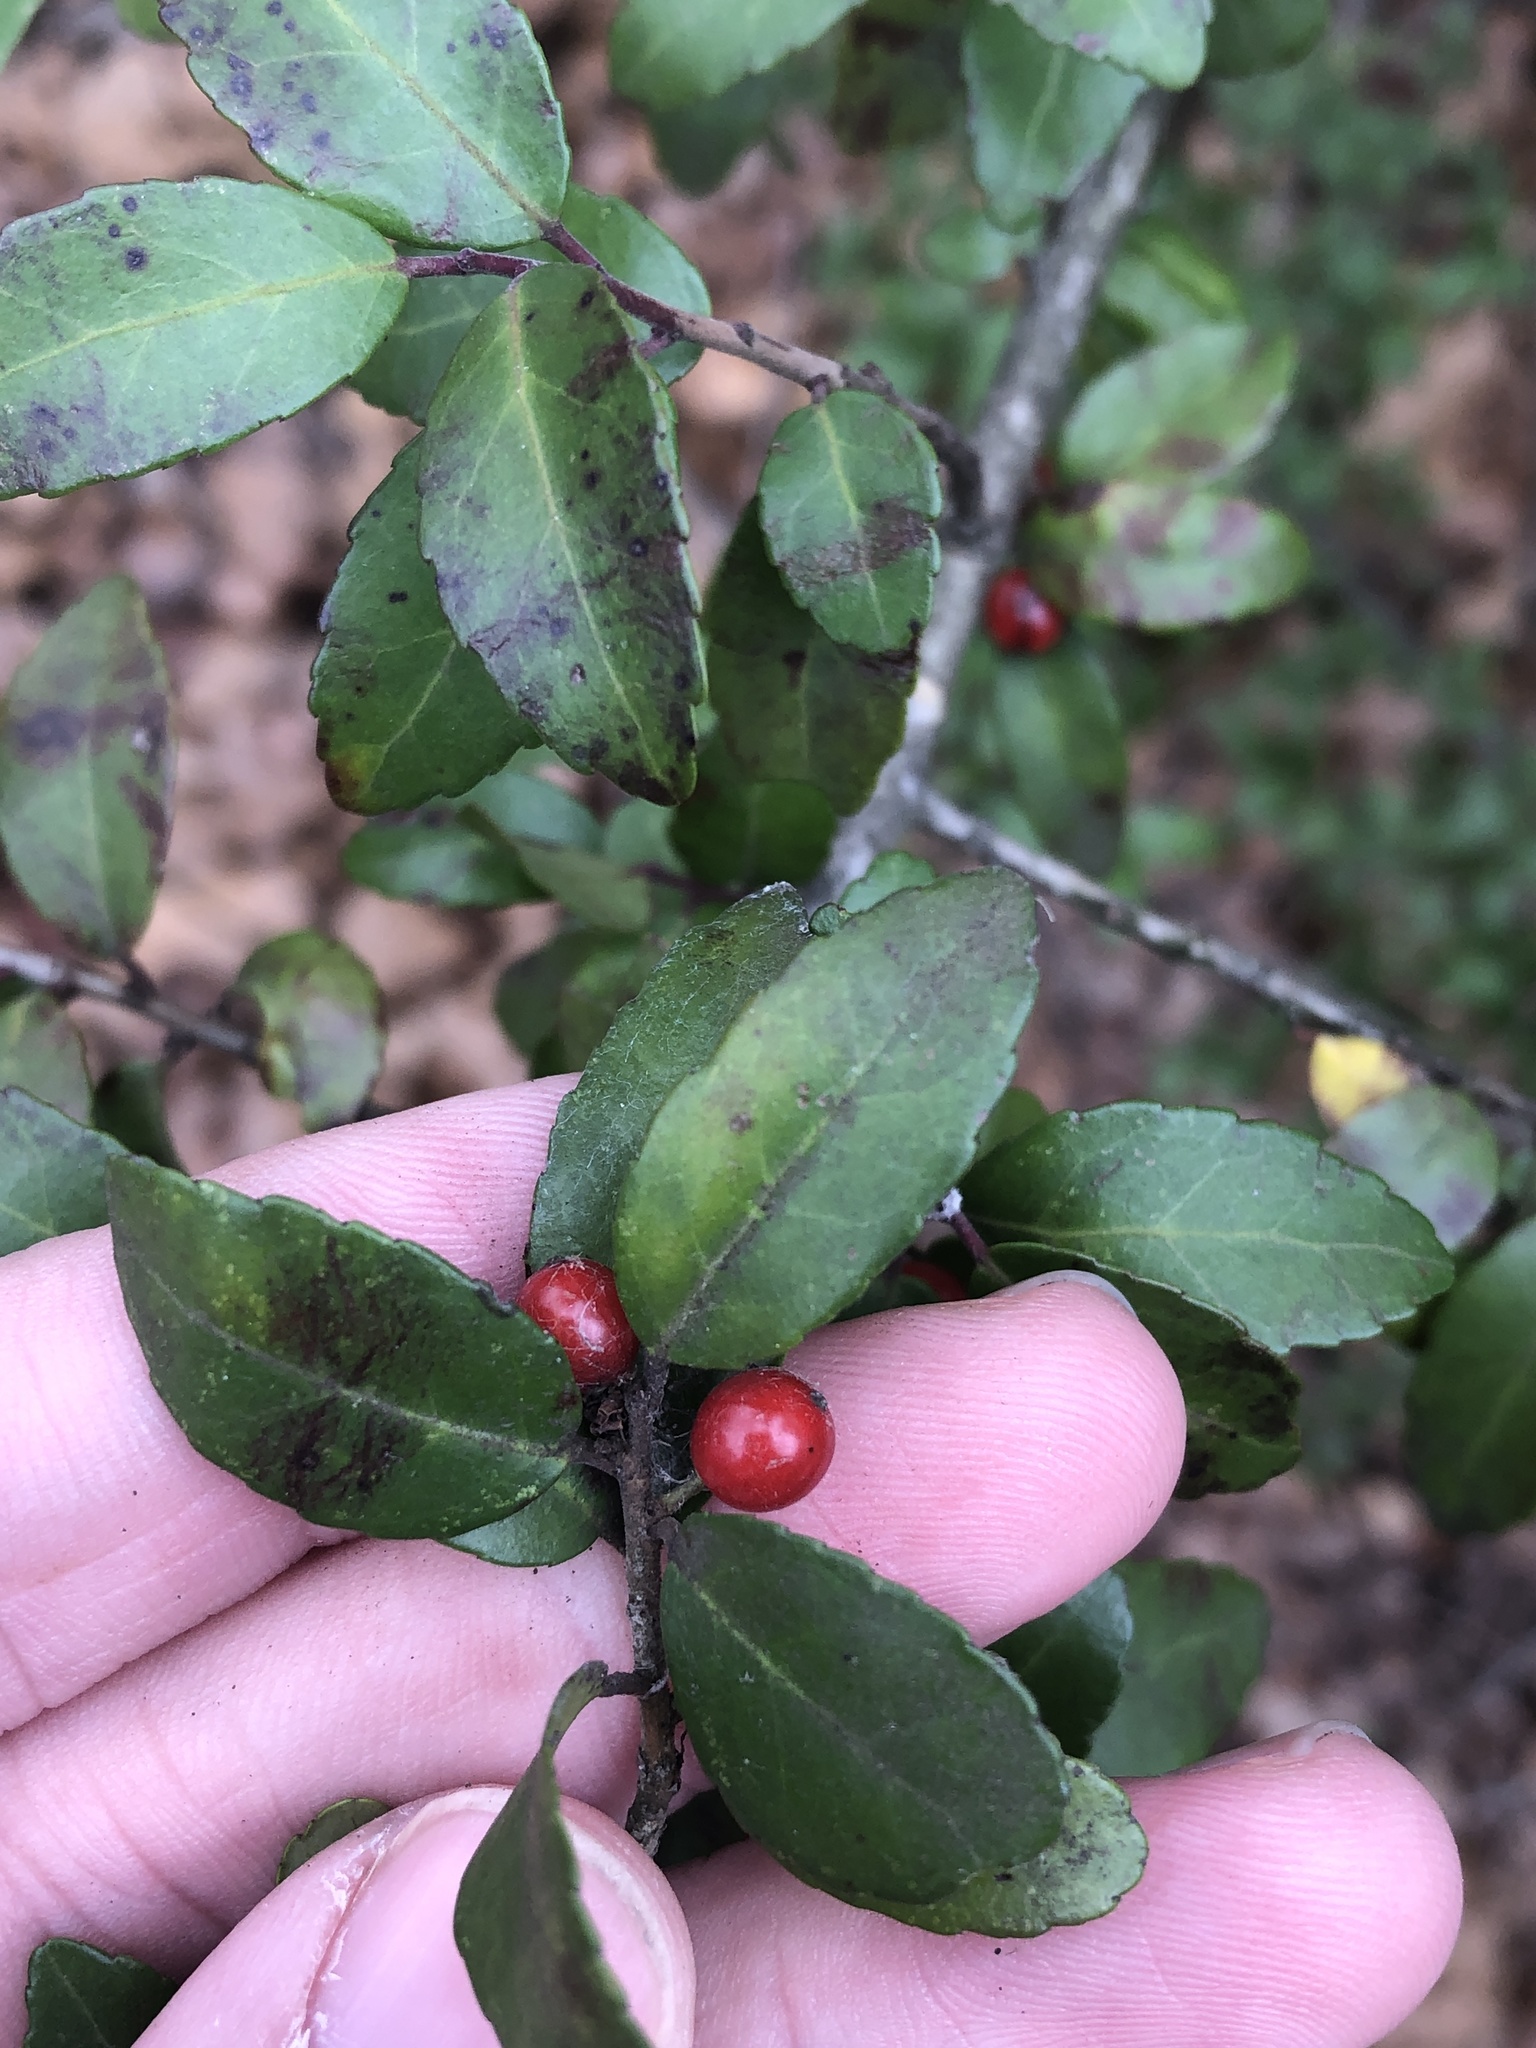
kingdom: Plantae
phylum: Tracheophyta
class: Magnoliopsida
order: Aquifoliales
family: Aquifoliaceae
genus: Ilex
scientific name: Ilex vomitoria
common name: Yaupon holly
